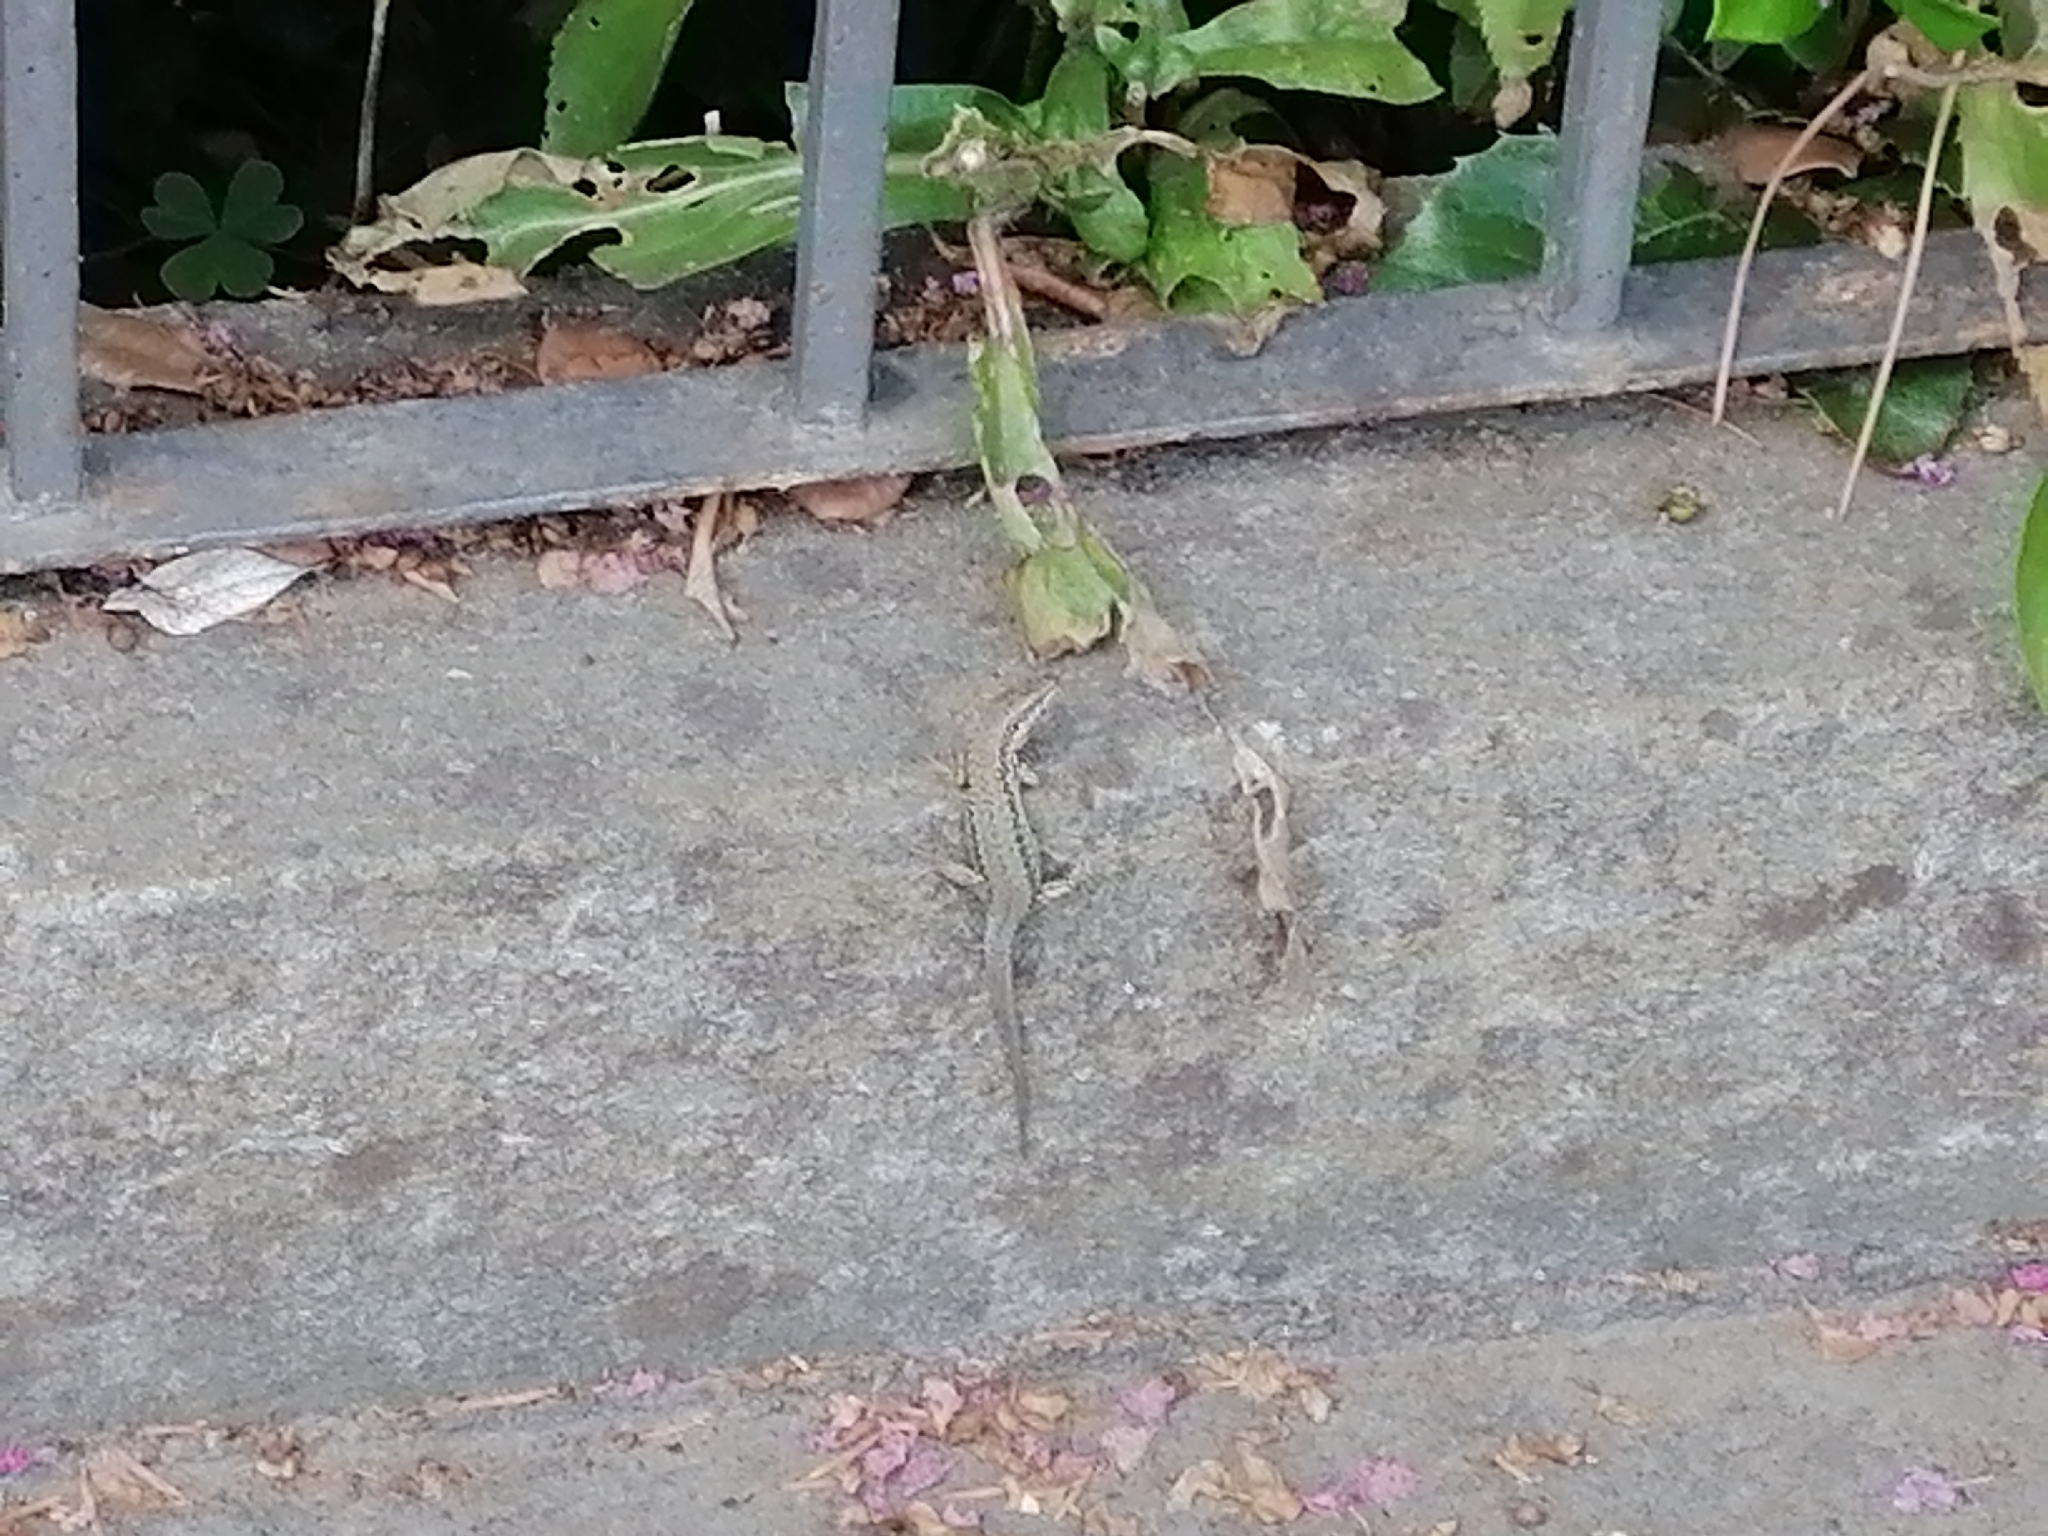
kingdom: Animalia
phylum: Chordata
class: Squamata
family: Lacertidae
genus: Podarcis
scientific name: Podarcis muralis
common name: Common wall lizard
